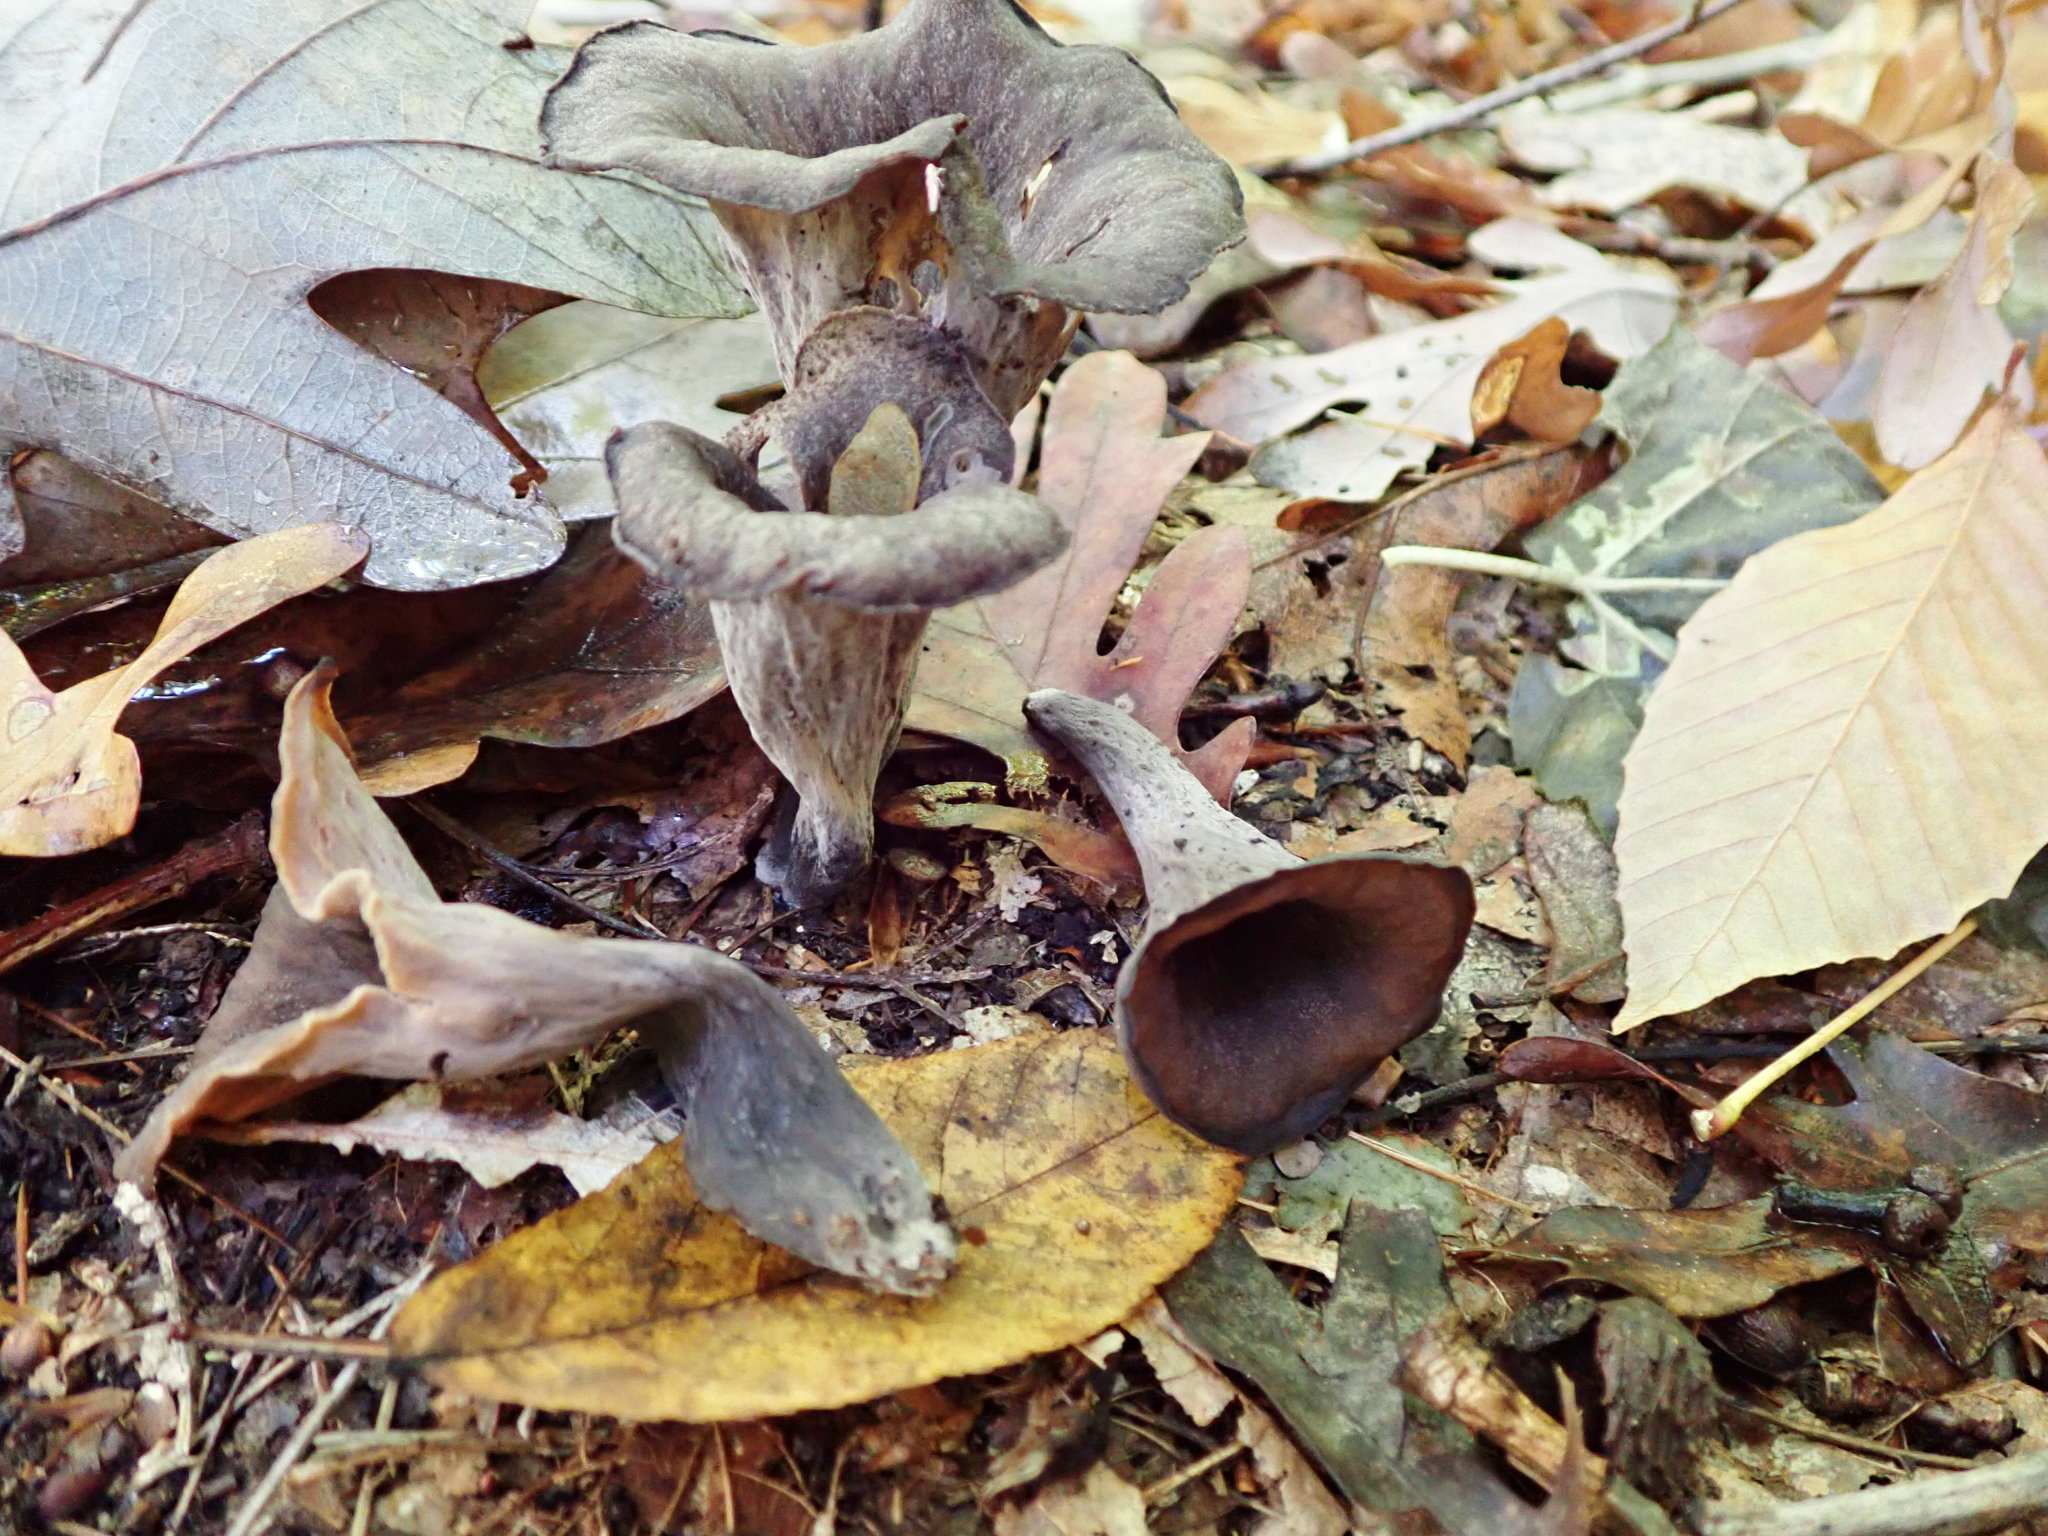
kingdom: Fungi
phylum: Basidiomycota
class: Agaricomycetes
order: Cantharellales
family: Hydnaceae
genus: Craterellus
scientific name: Craterellus cornucopioides
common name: Horn of plenty
